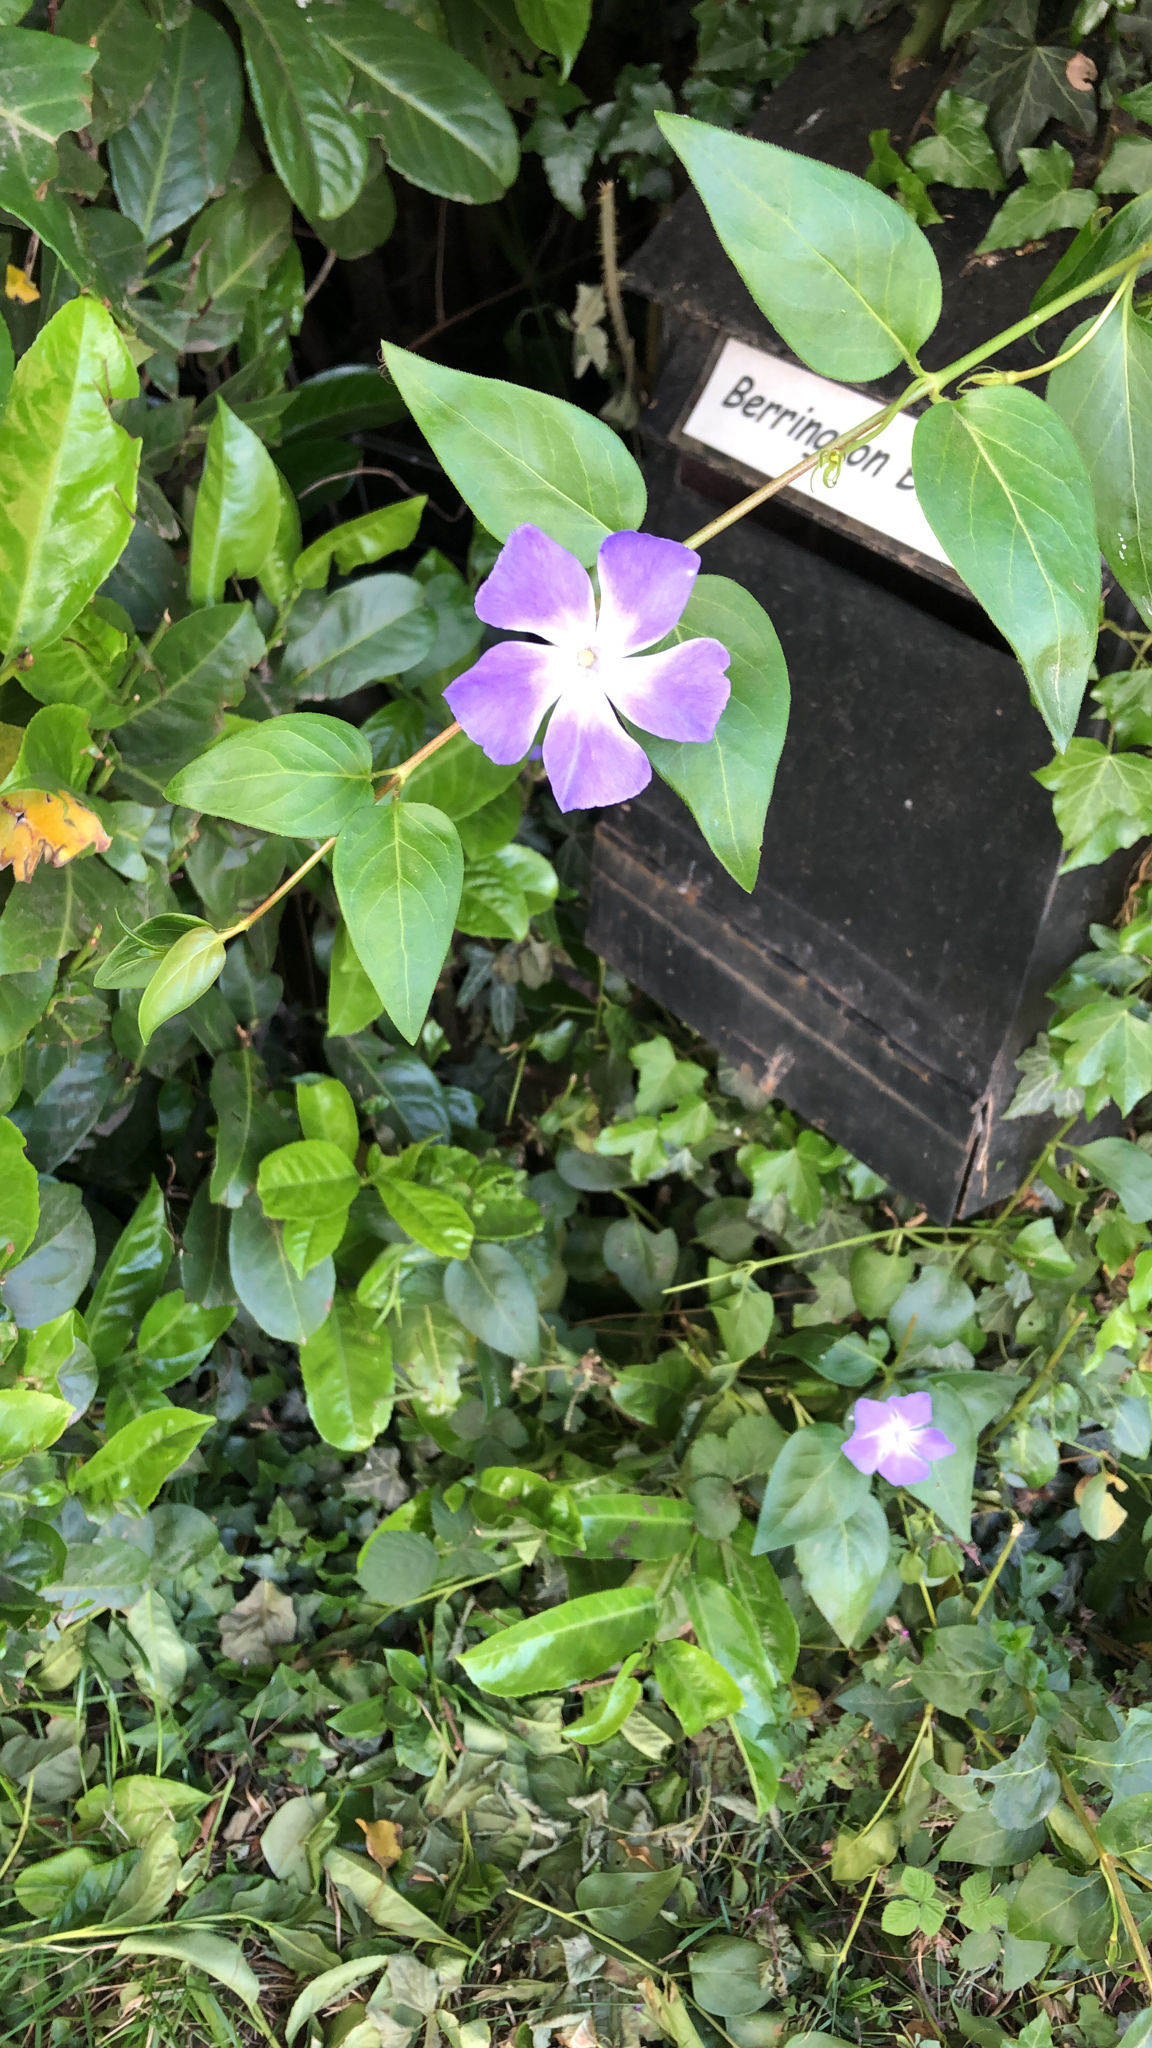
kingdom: Plantae
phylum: Tracheophyta
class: Magnoliopsida
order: Gentianales
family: Apocynaceae
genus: Vinca
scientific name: Vinca major
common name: Greater periwinkle
